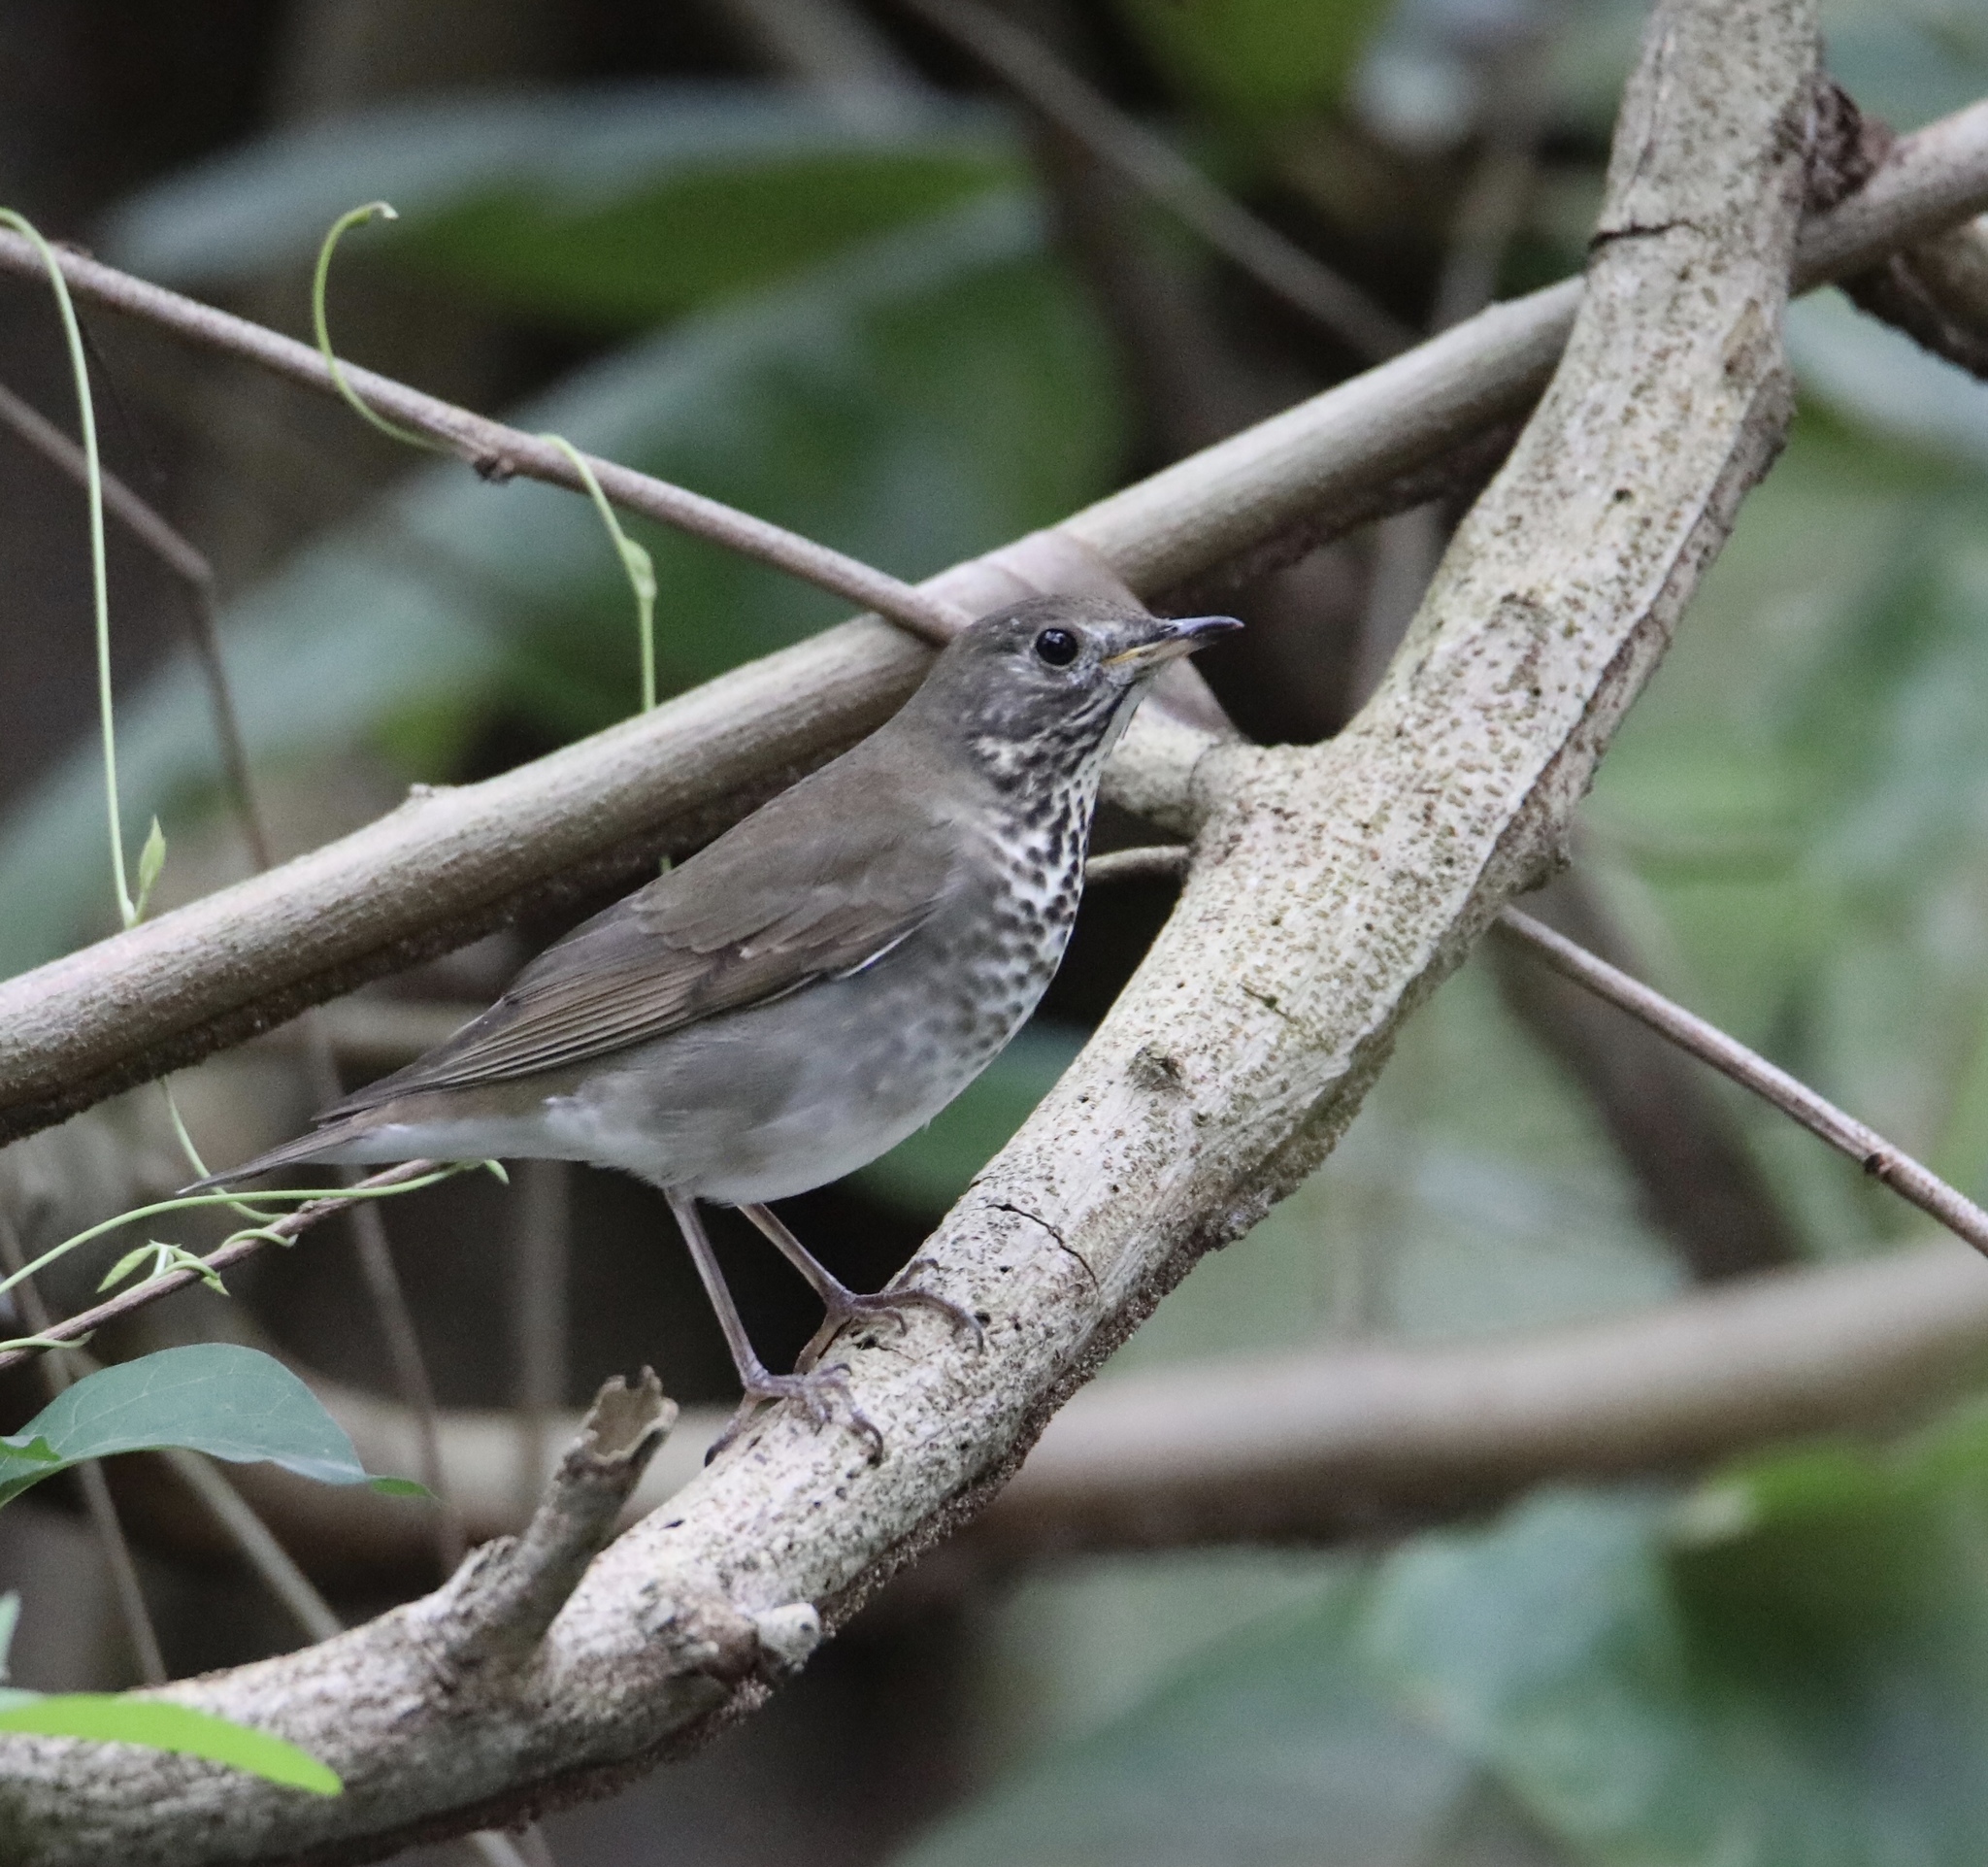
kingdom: Animalia
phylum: Chordata
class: Aves
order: Passeriformes
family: Turdidae
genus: Catharus
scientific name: Catharus minimus
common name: Grey-cheeked thrush
